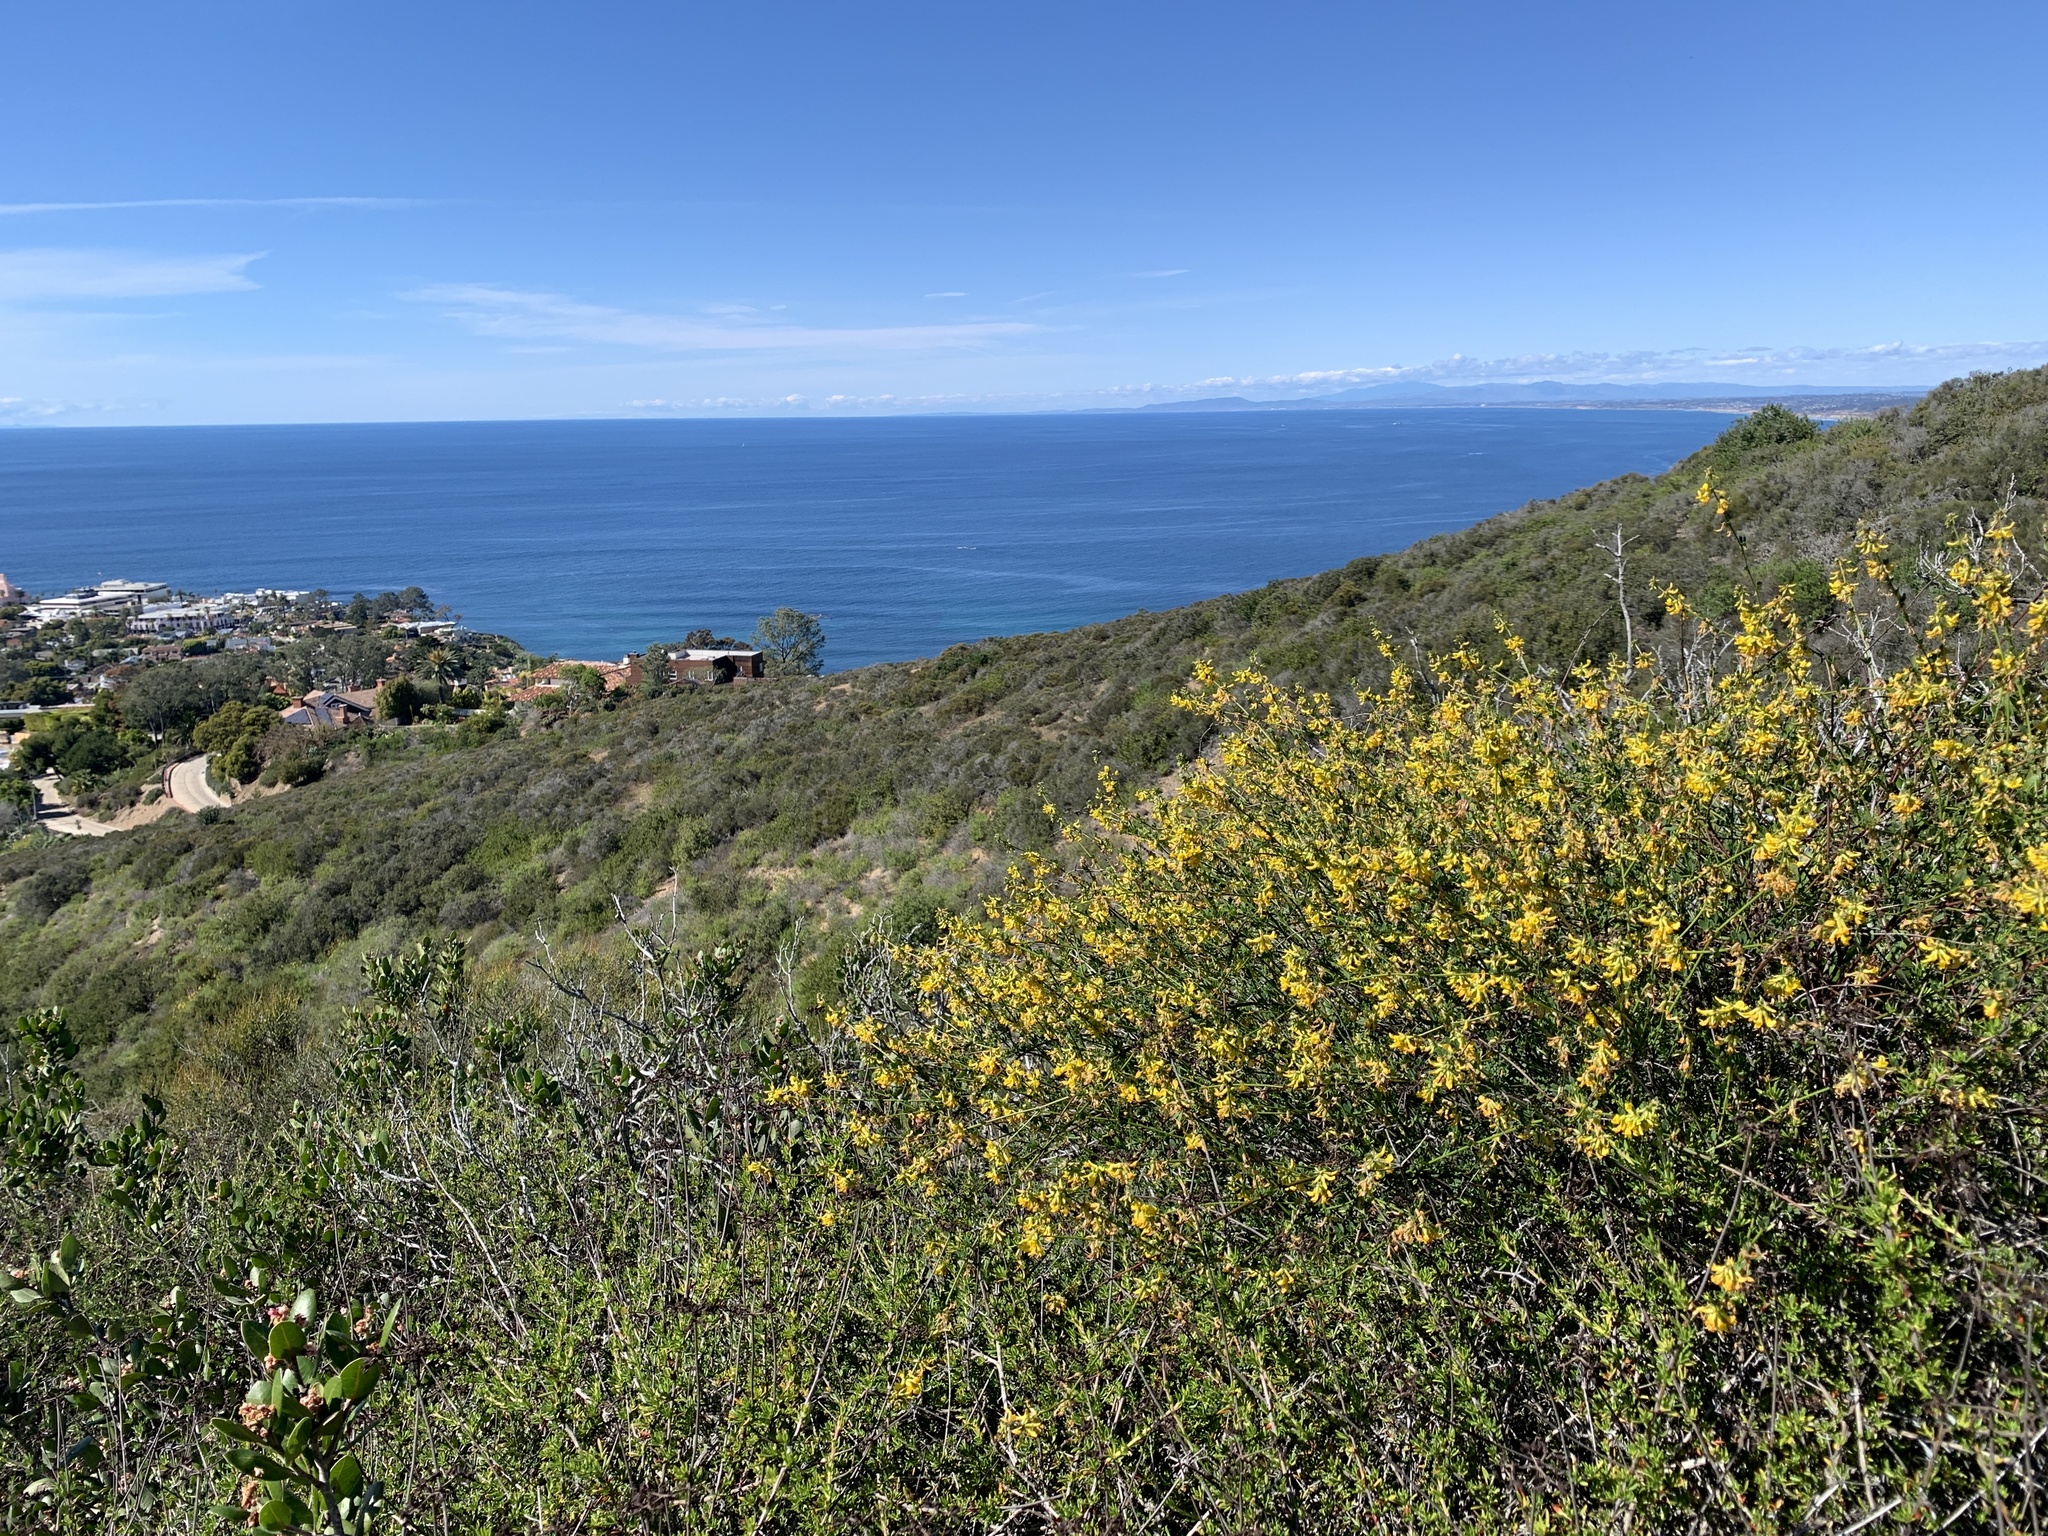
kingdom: Plantae
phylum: Tracheophyta
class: Magnoliopsida
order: Fabales
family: Fabaceae
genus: Acmispon
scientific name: Acmispon glaber
